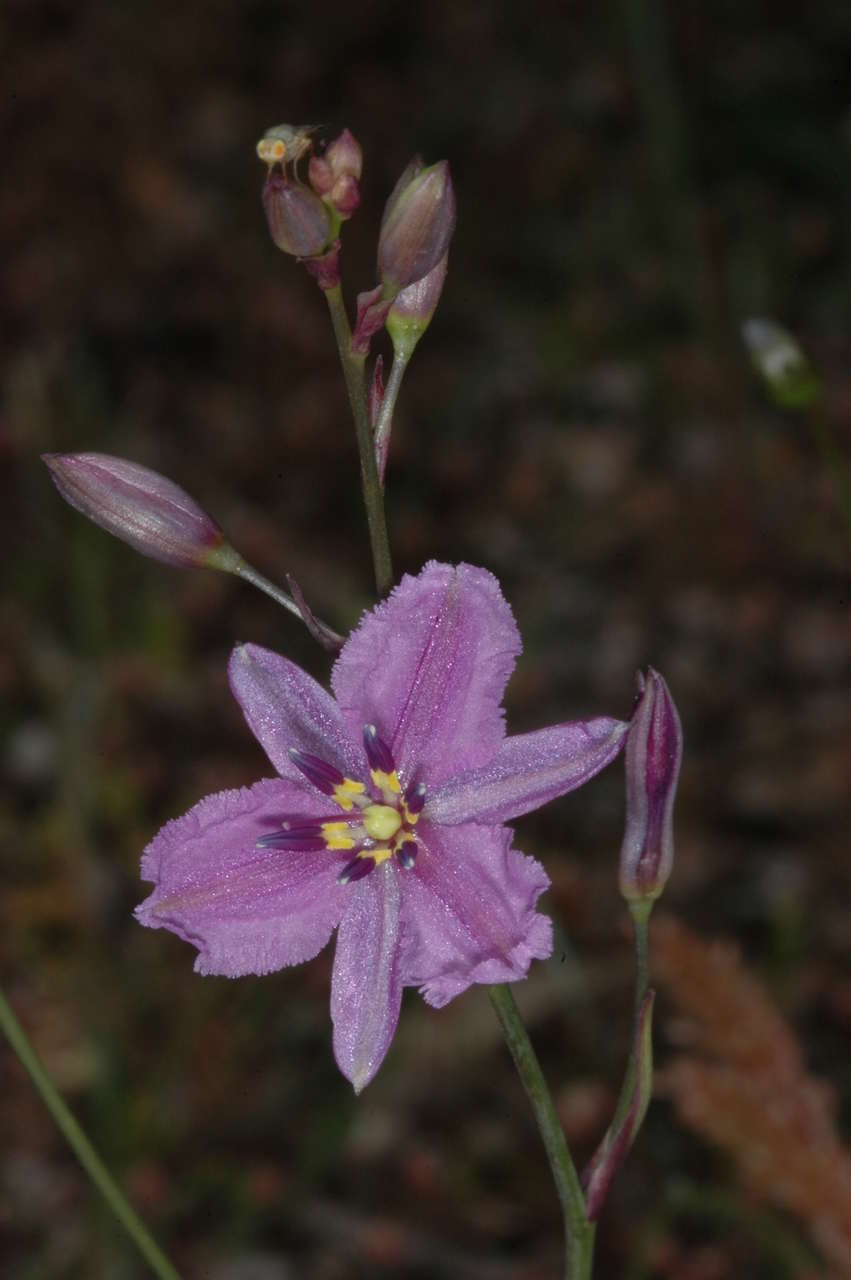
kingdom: Plantae
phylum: Tracheophyta
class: Liliopsida
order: Asparagales
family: Asparagaceae
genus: Arthropodium
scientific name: Arthropodium strictum
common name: Chocolate-lily
